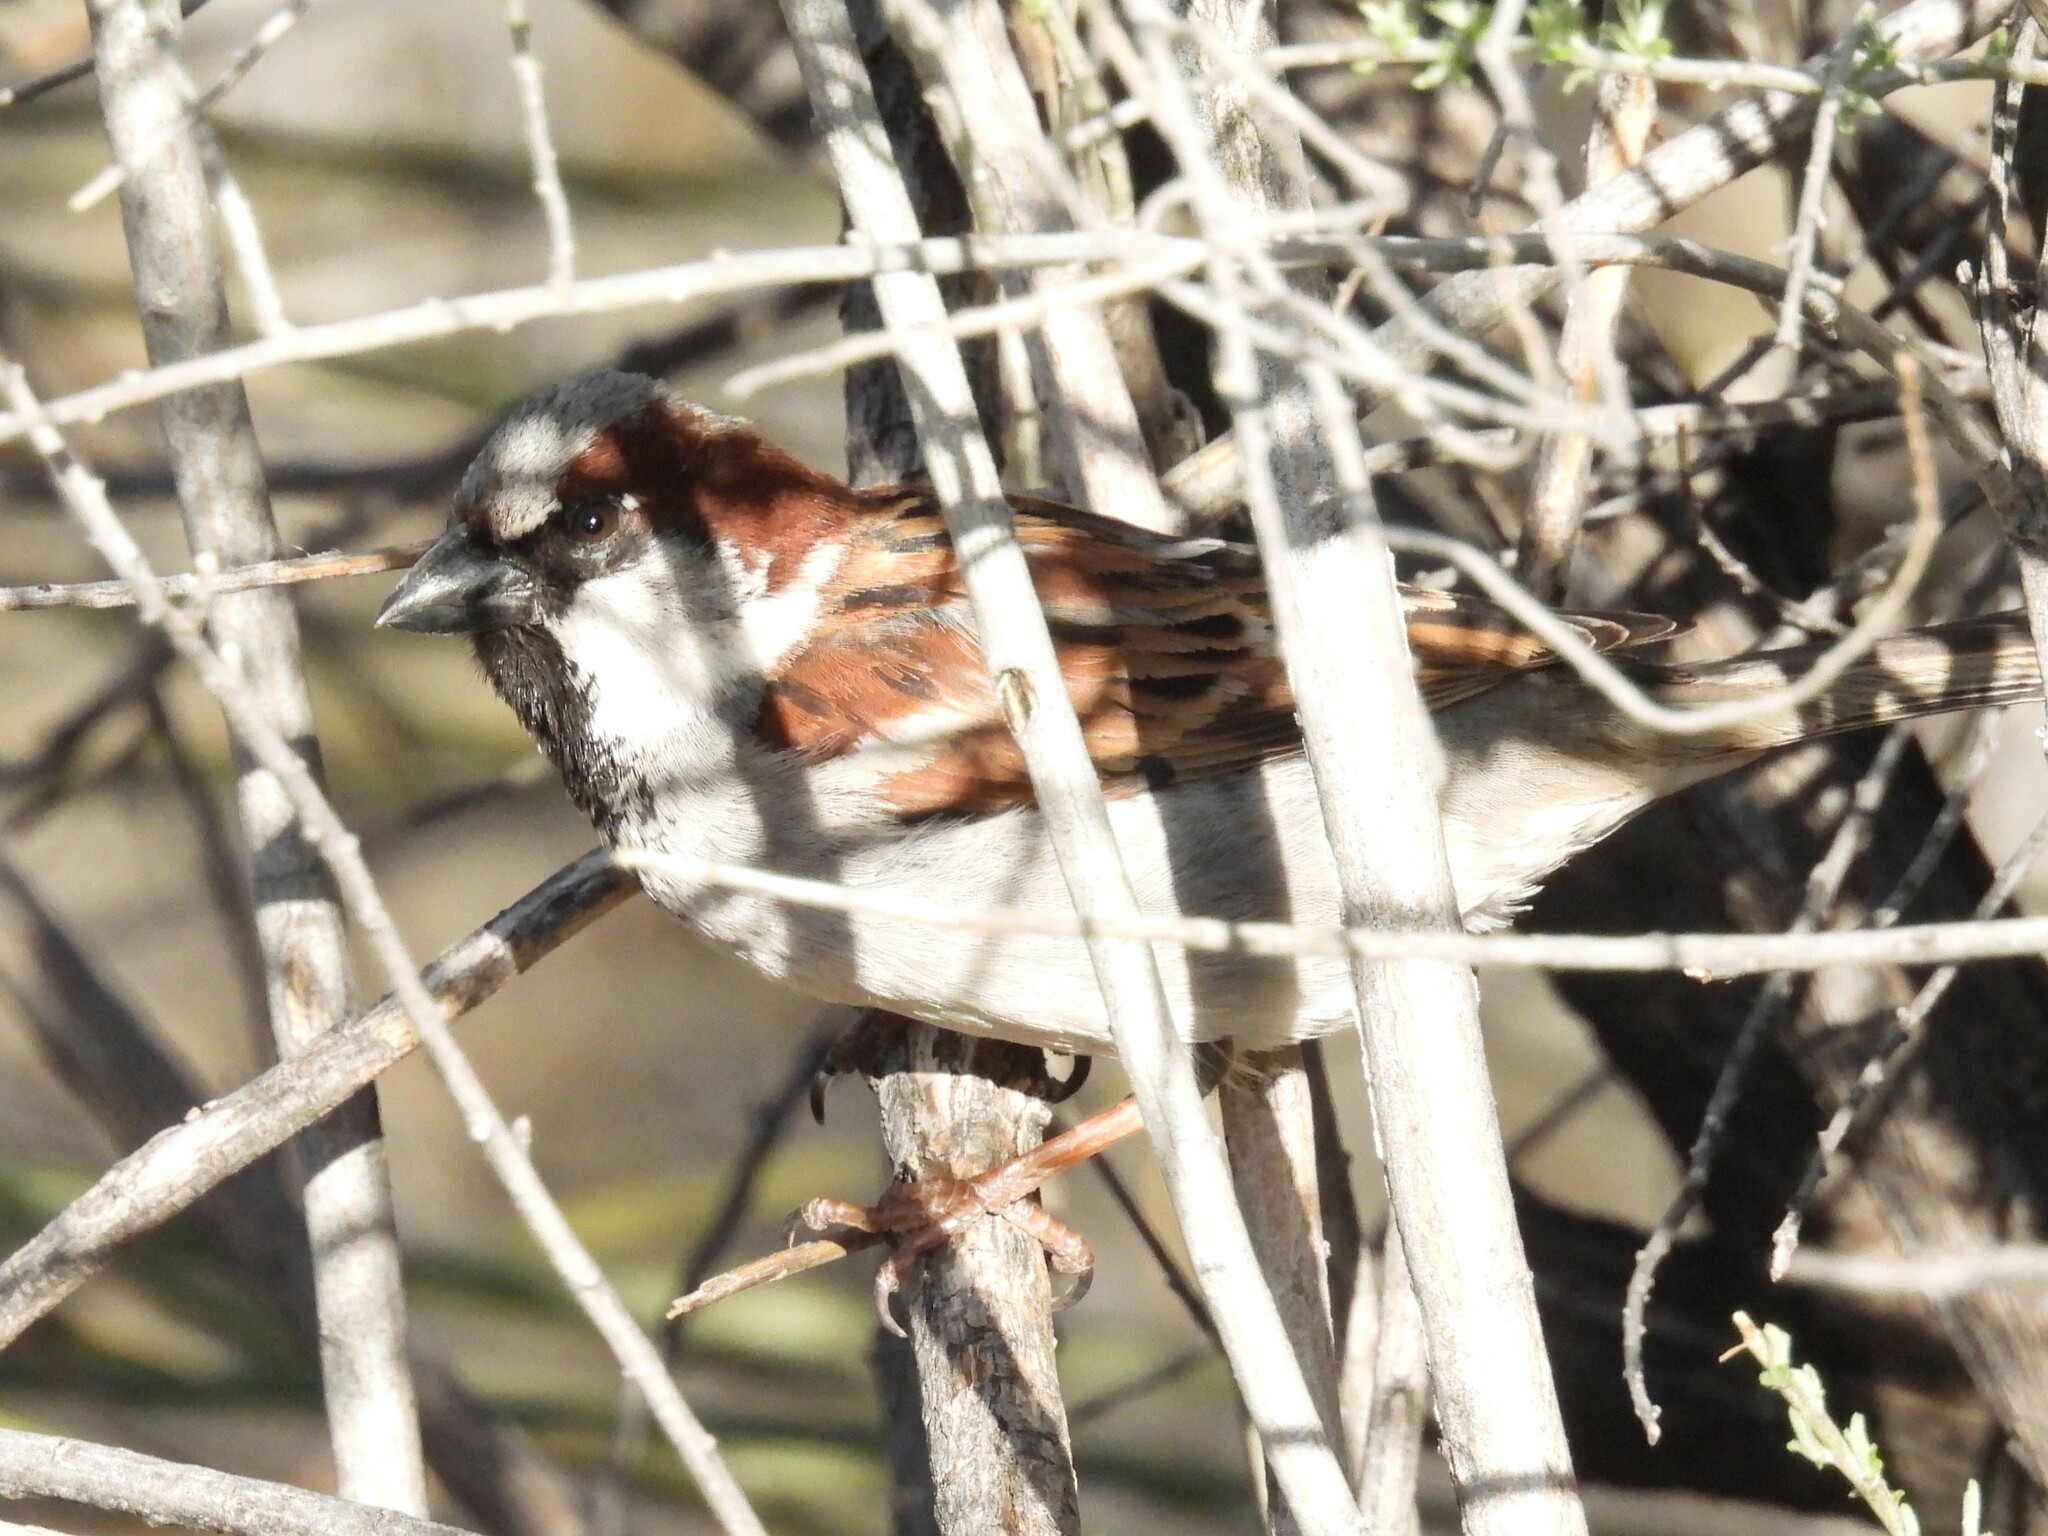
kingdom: Animalia
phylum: Chordata
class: Aves
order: Passeriformes
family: Passeridae
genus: Passer
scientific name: Passer domesticus
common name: House sparrow
